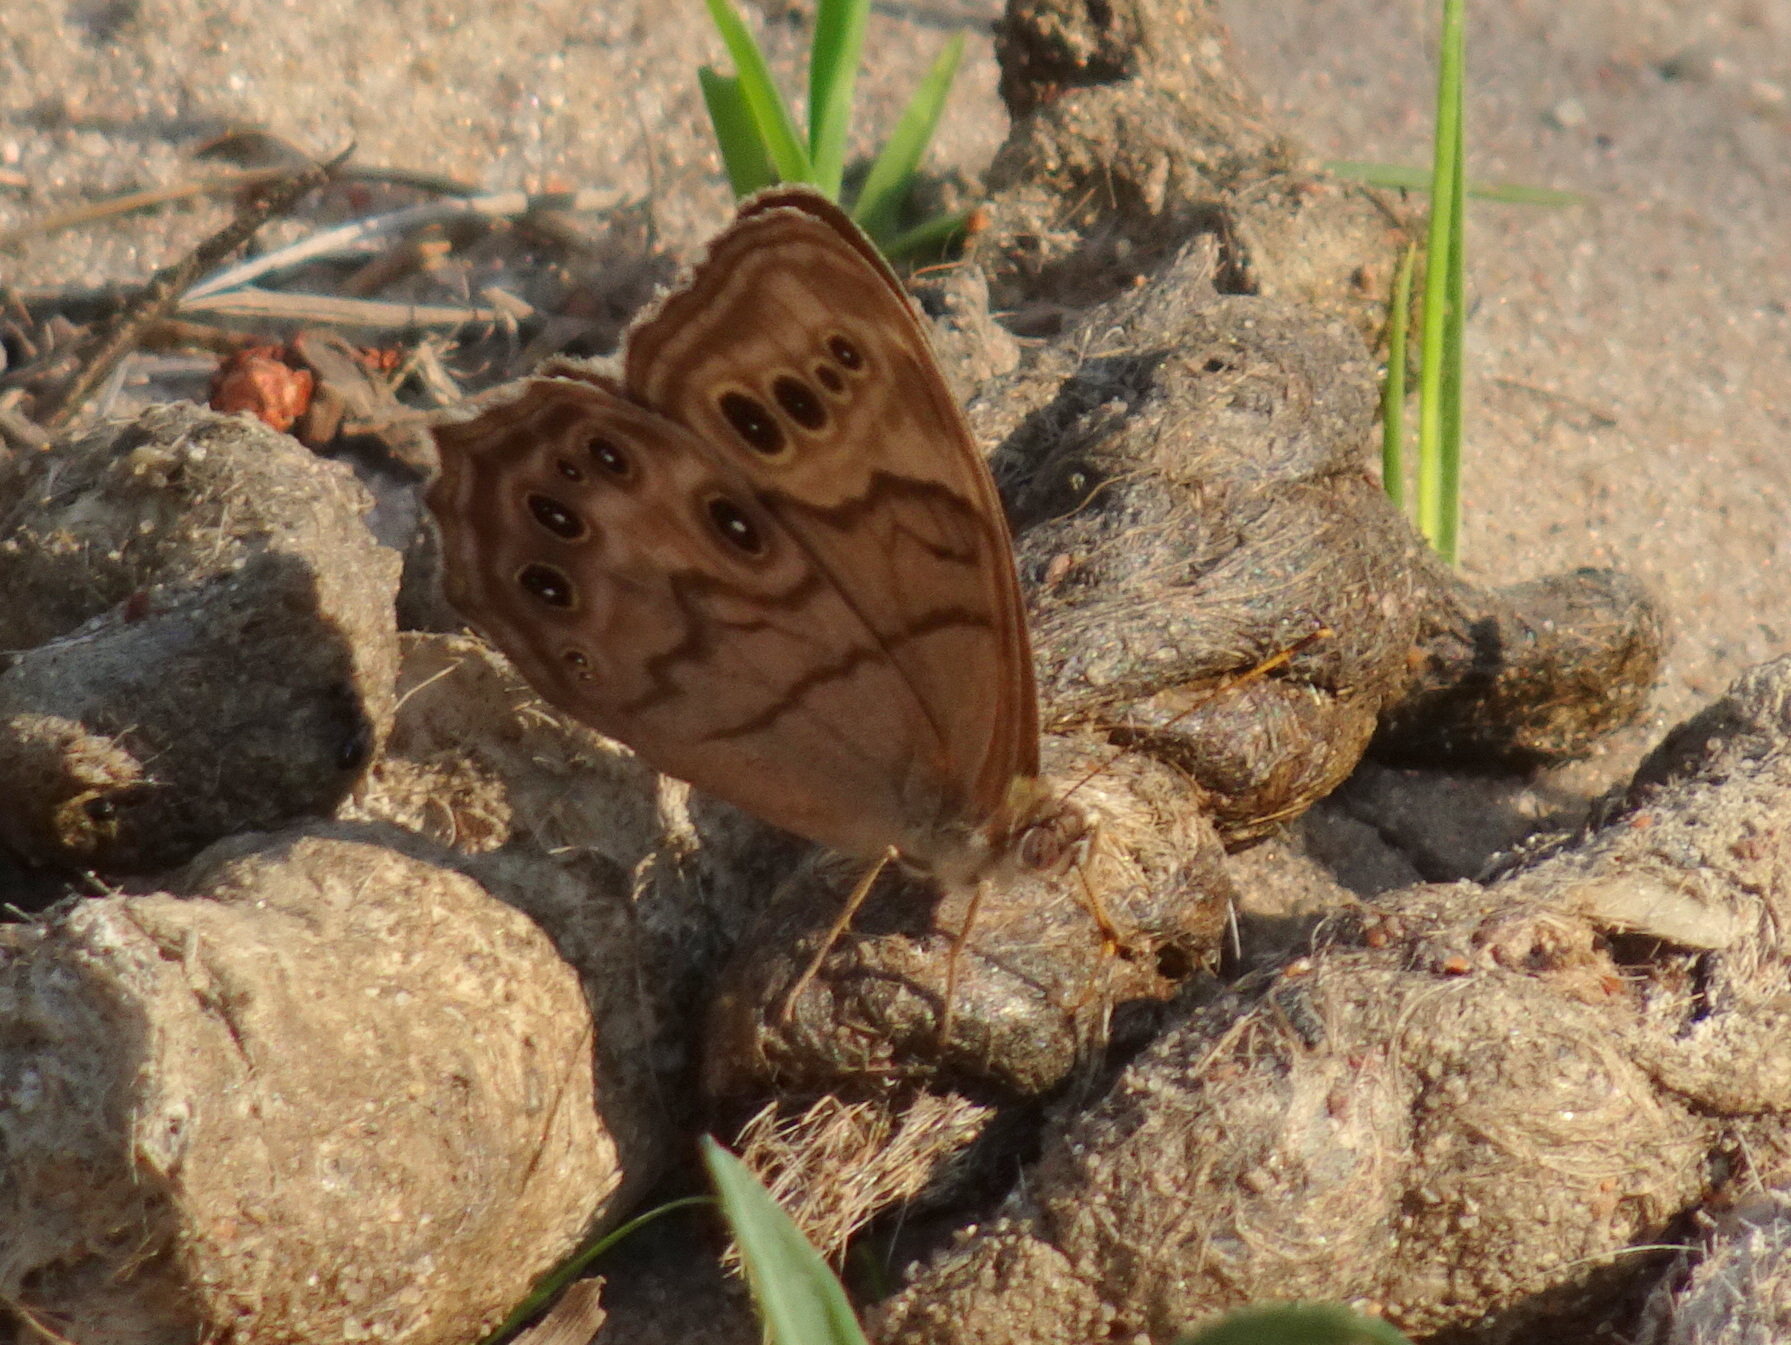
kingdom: Animalia
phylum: Arthropoda
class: Insecta
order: Lepidoptera
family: Nymphalidae
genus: Lethe
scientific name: Lethe anthedon
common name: Northern pearly-eye
